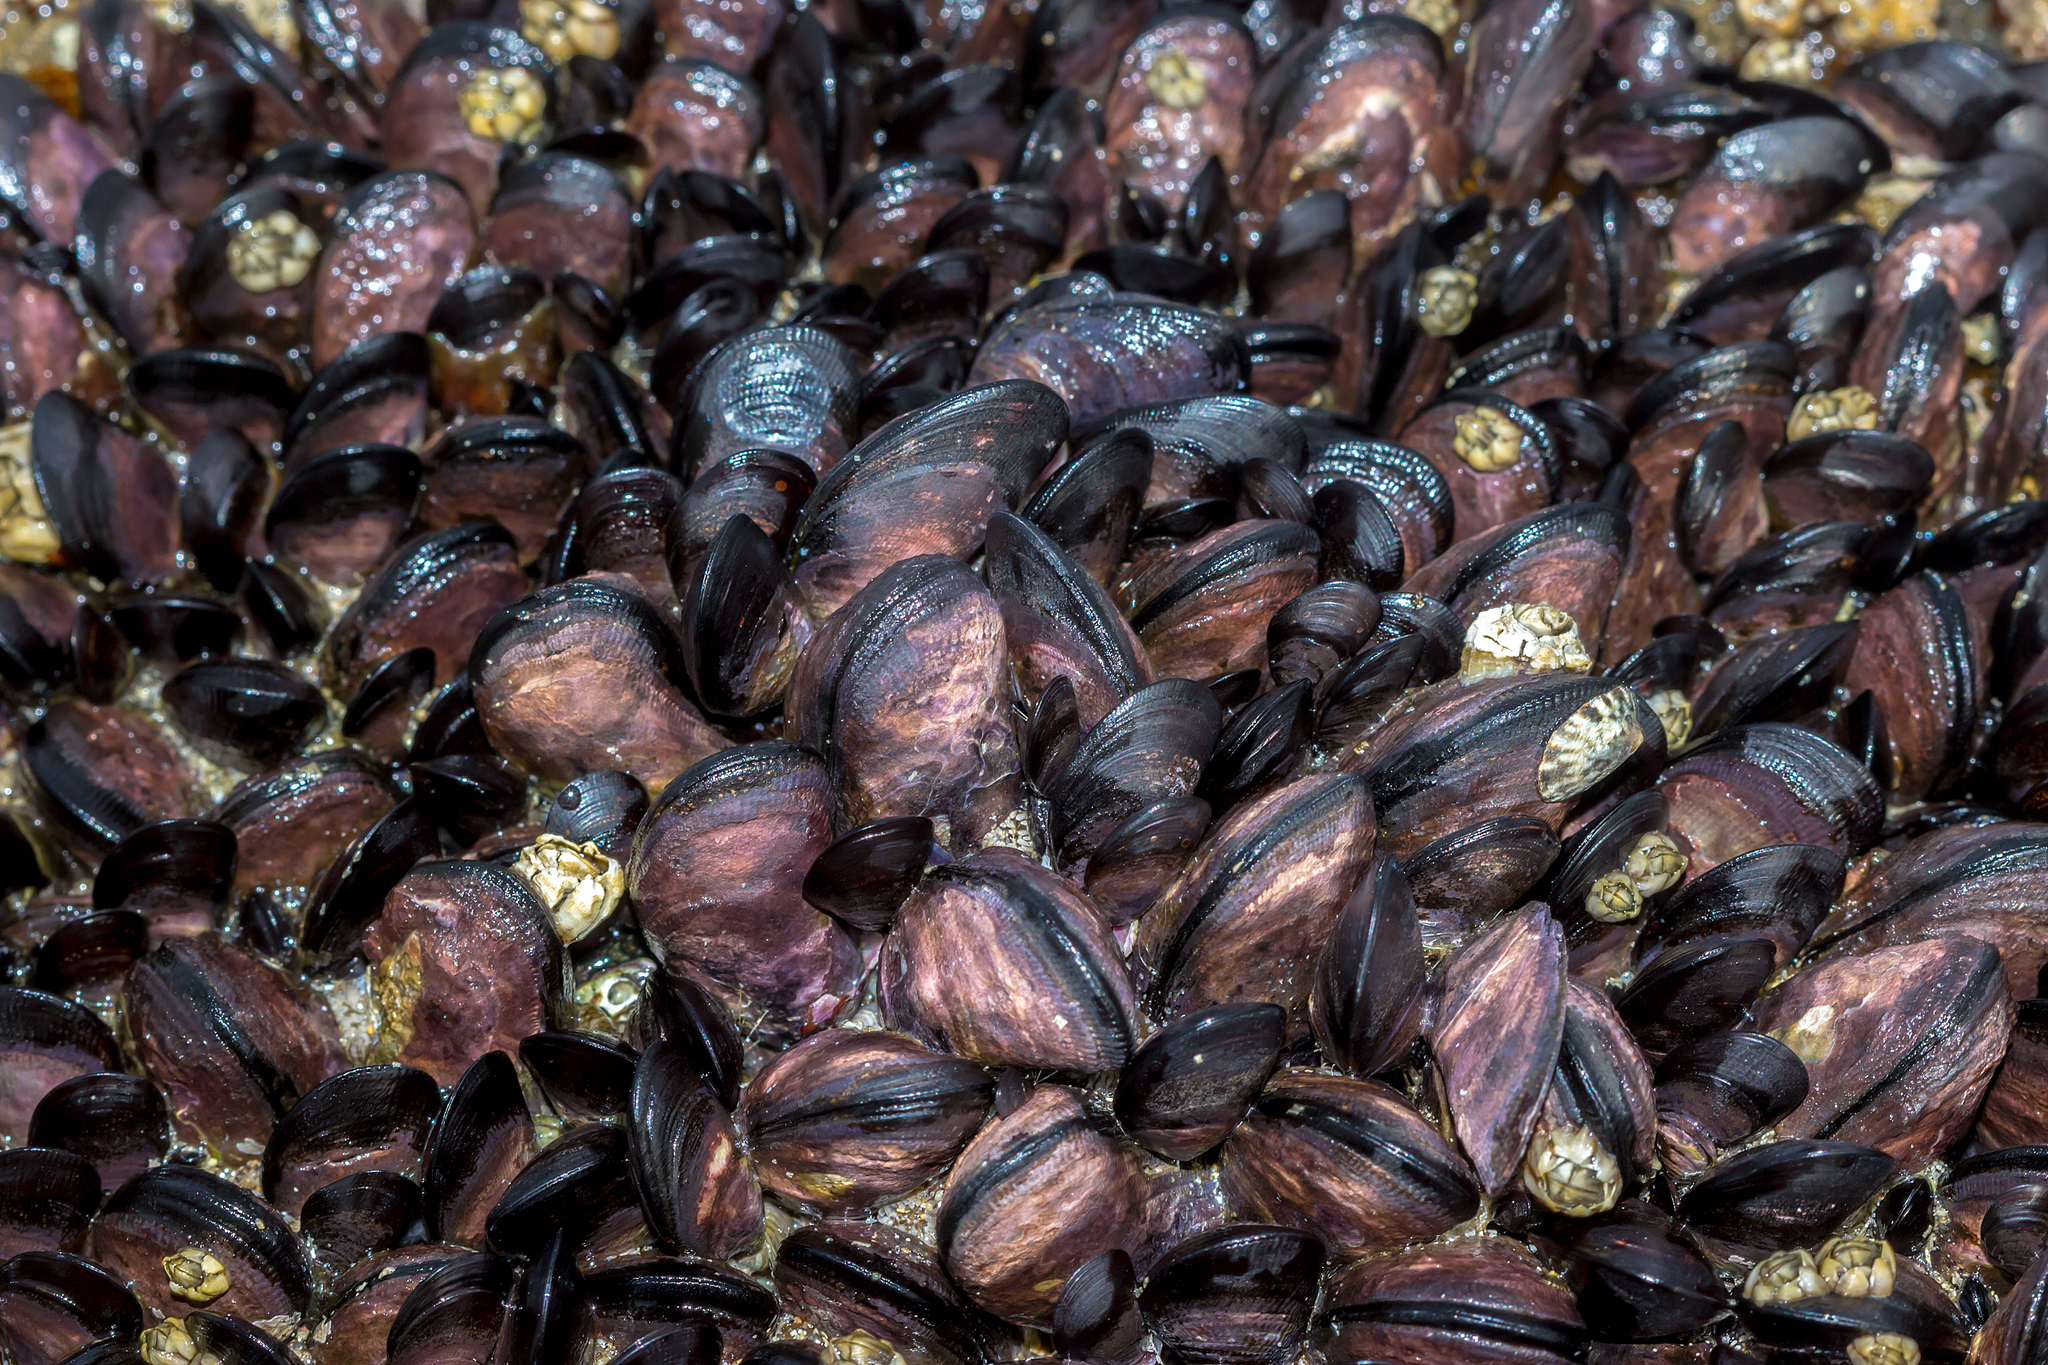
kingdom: Animalia
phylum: Mollusca
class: Bivalvia
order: Mytilida
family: Mytilidae
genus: Brachidontes
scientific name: Brachidontes rostratus
